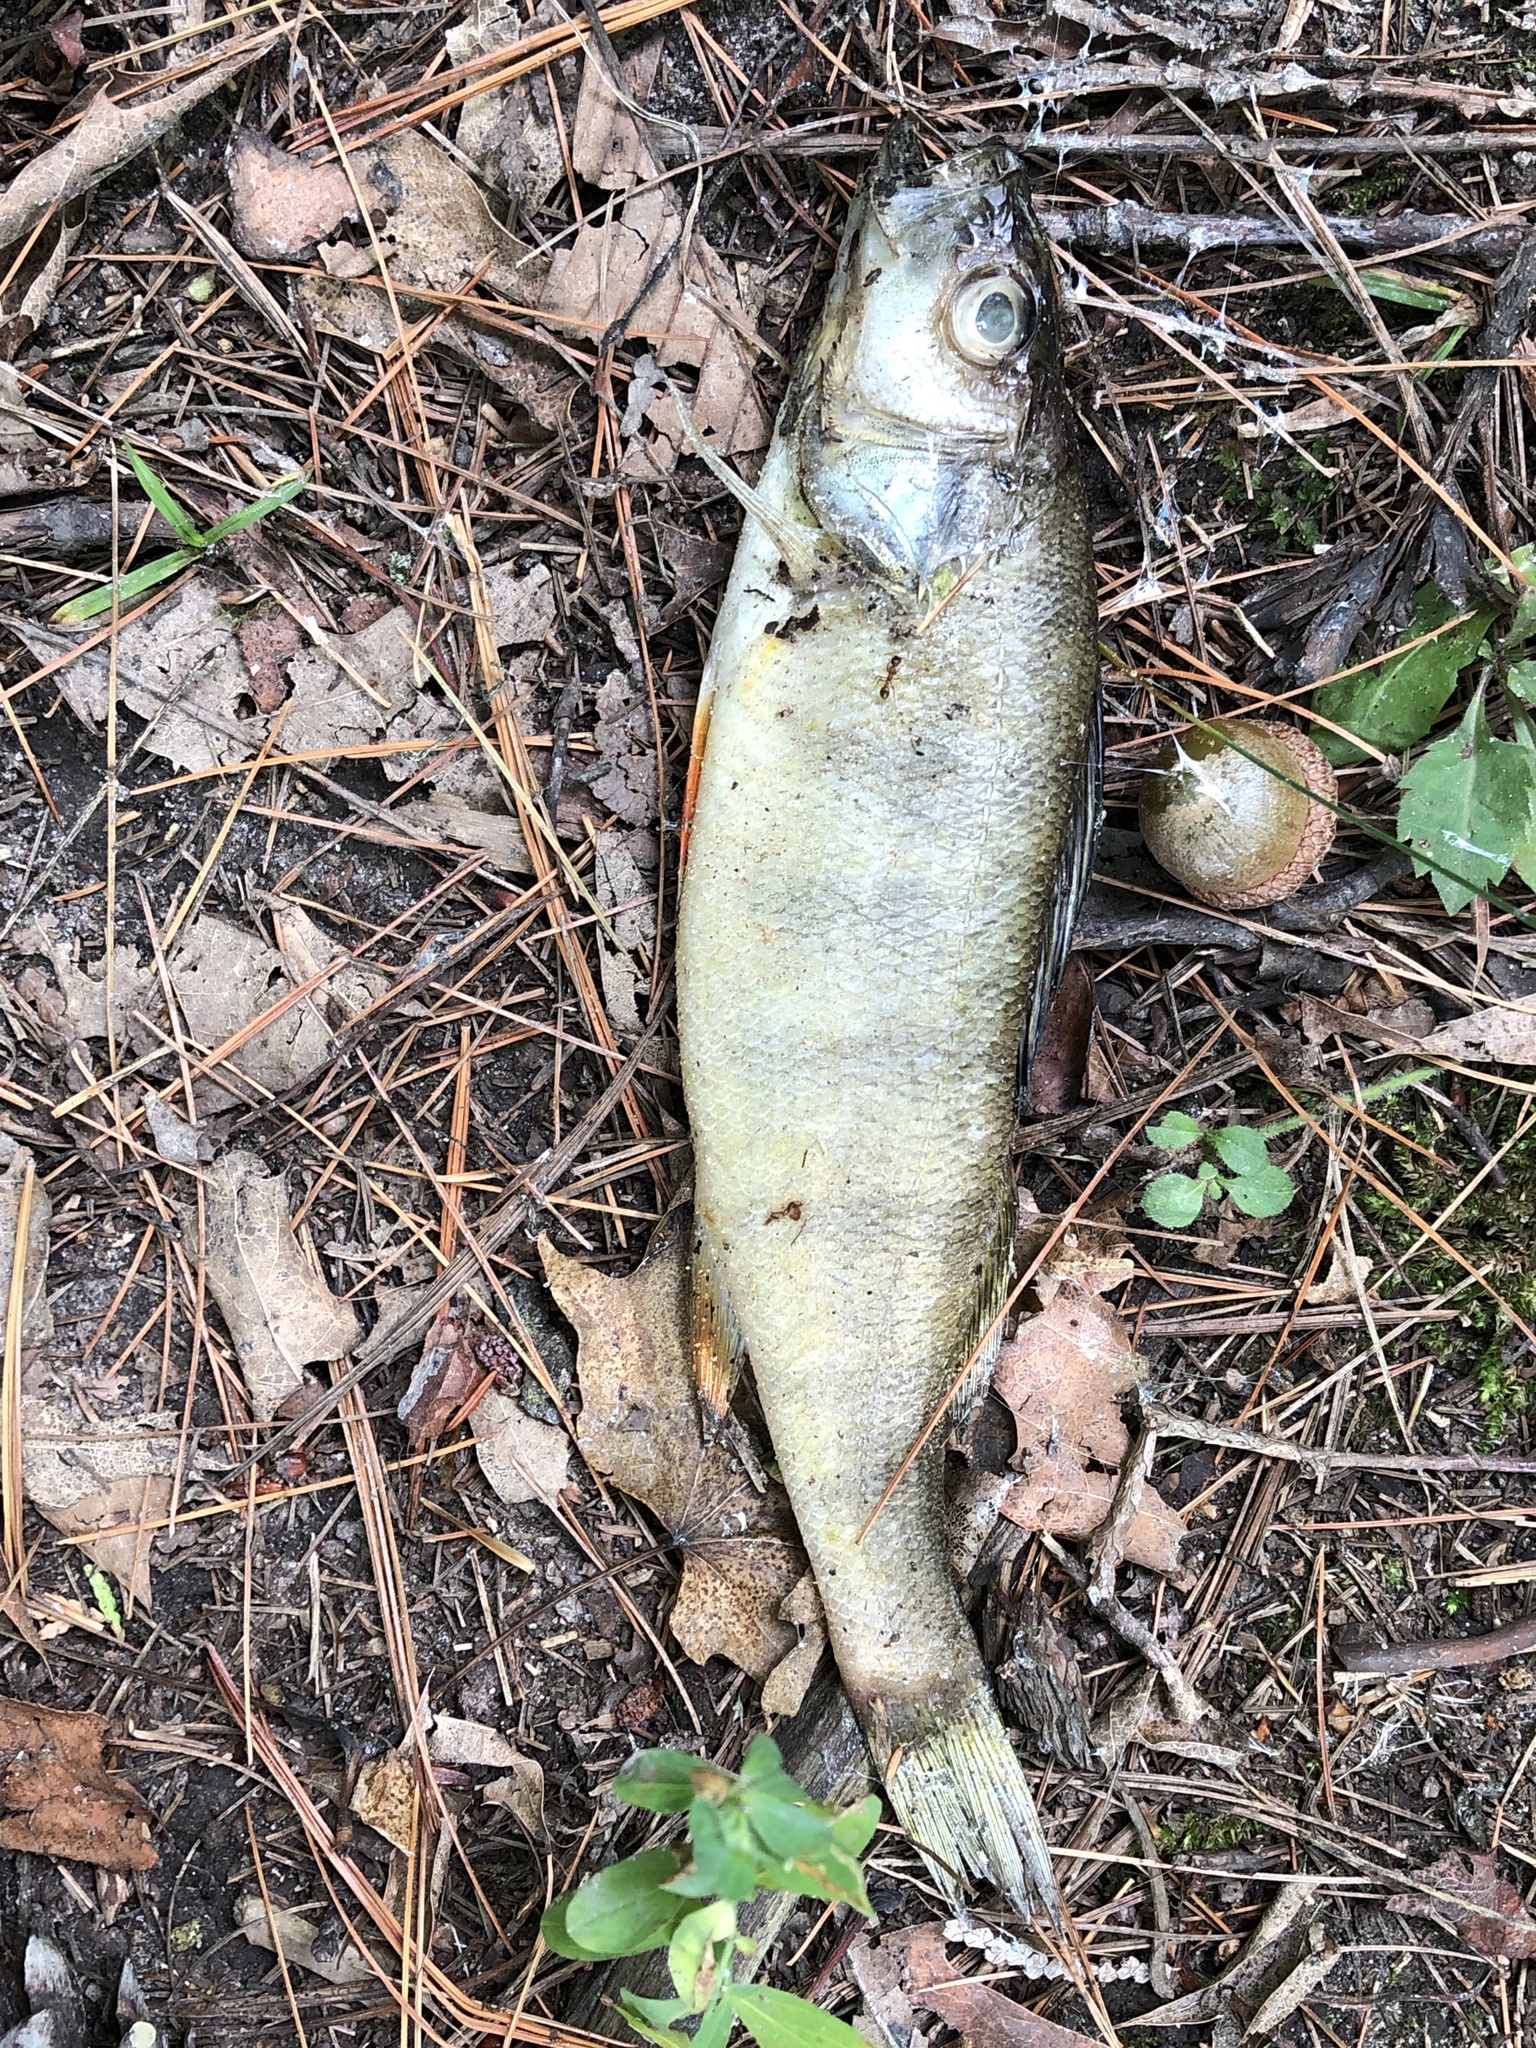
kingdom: Animalia
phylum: Chordata
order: Perciformes
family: Percidae
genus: Perca
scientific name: Perca flavescens
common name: Yellow perch
